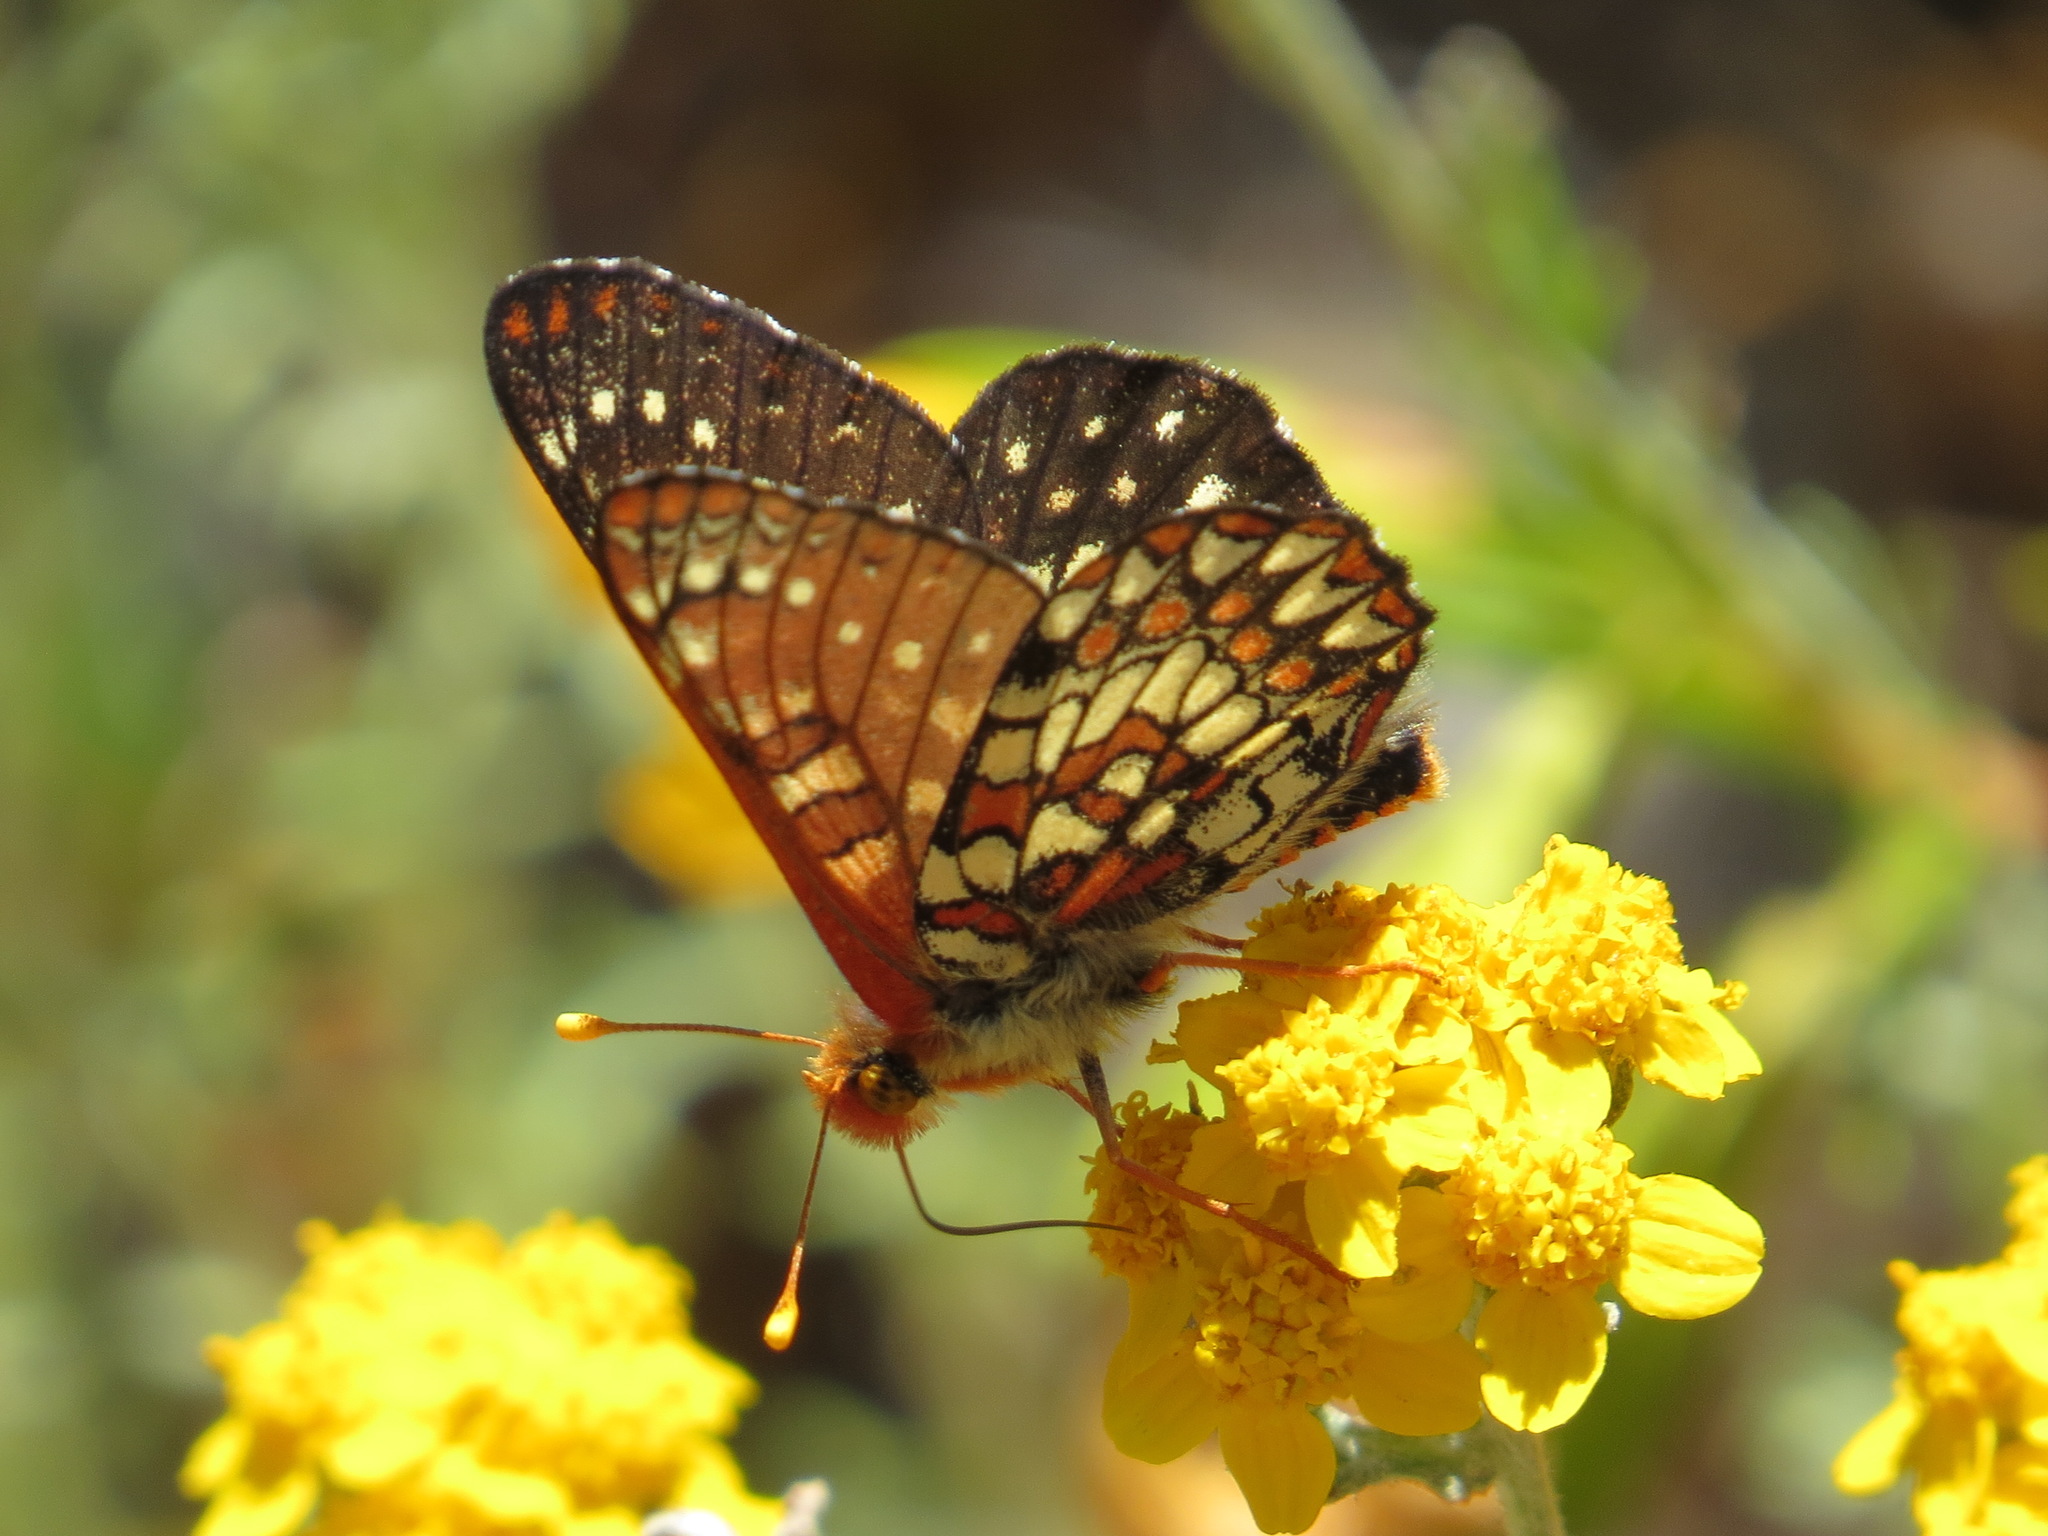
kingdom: Animalia
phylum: Arthropoda
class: Insecta
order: Lepidoptera
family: Nymphalidae
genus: Occidryas
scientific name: Occidryas chalcedona
